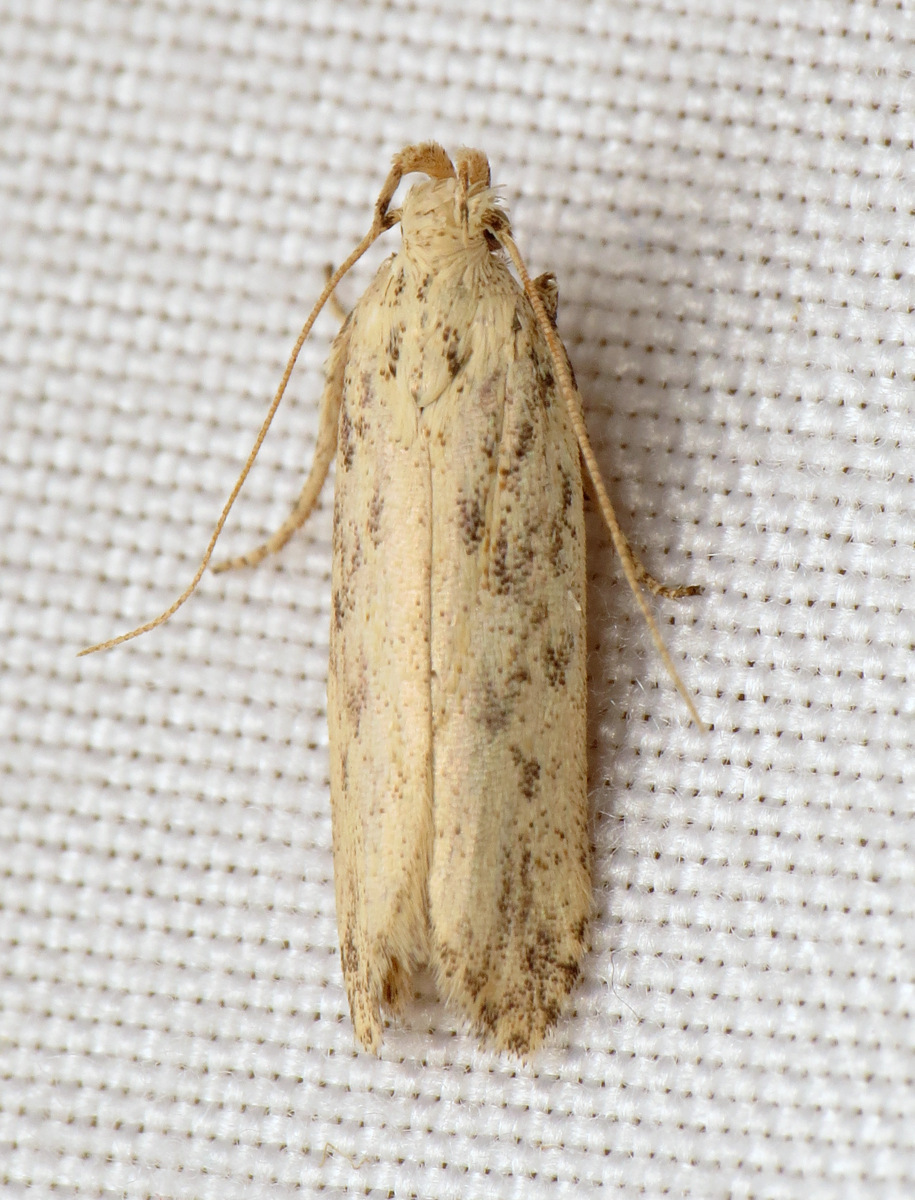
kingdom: Animalia
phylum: Arthropoda
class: Insecta
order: Lepidoptera
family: Gelechiidae
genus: Frumenta
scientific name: Frumenta nundinella
